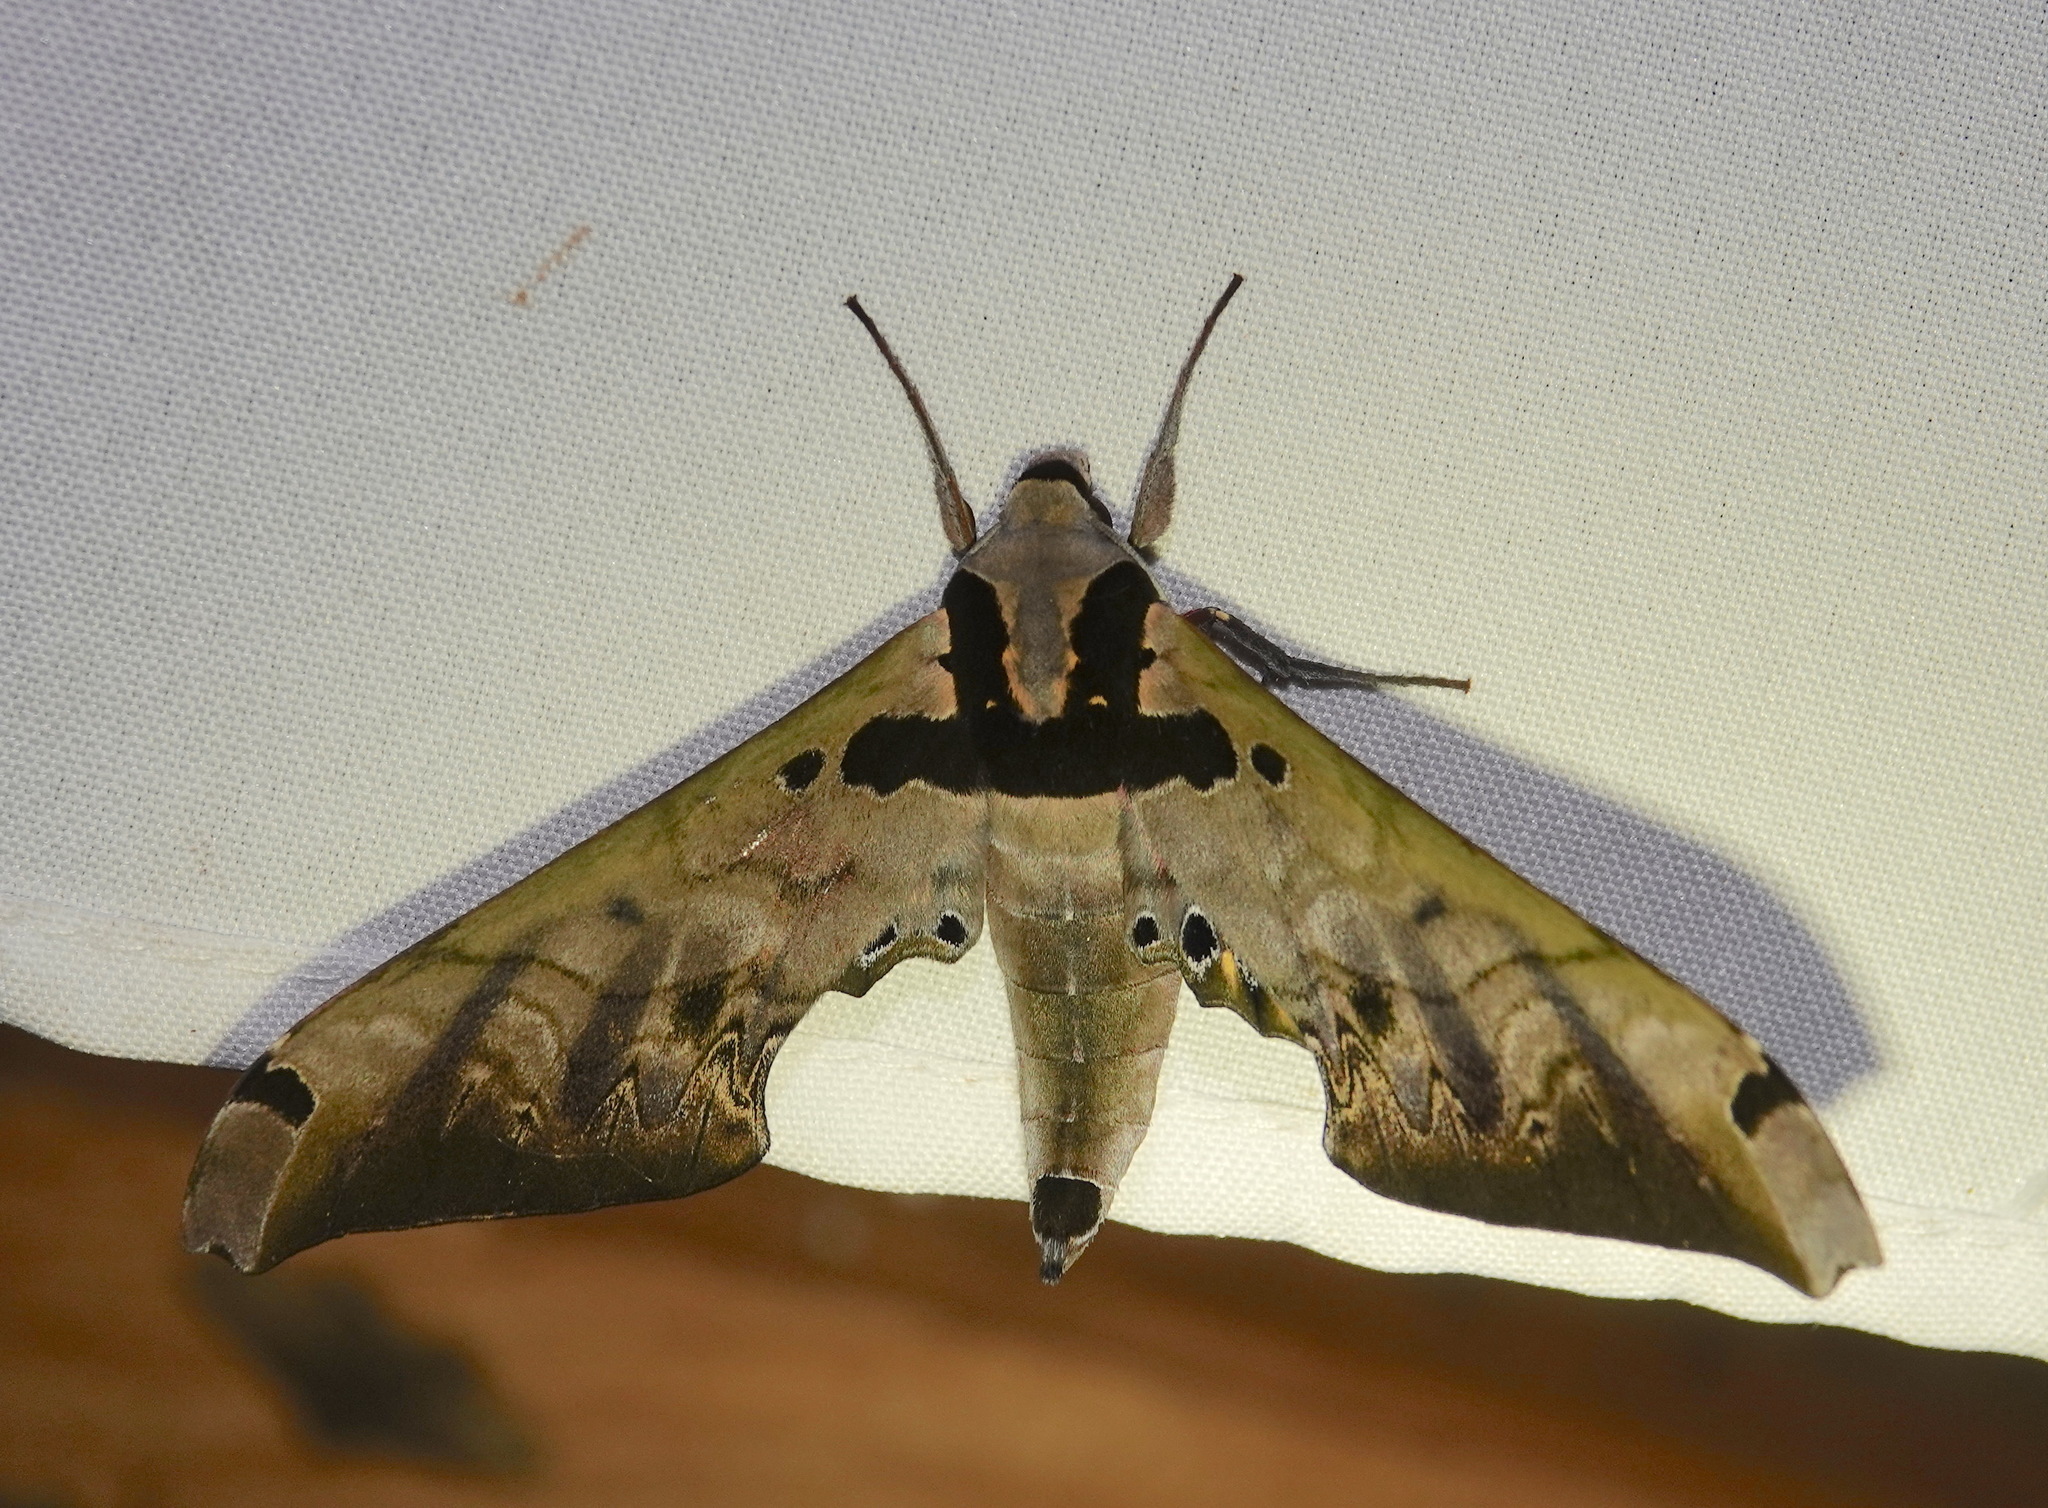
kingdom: Animalia
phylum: Arthropoda
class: Insecta
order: Lepidoptera
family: Sphingidae
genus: Adhemarius
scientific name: Adhemarius sexoculata
